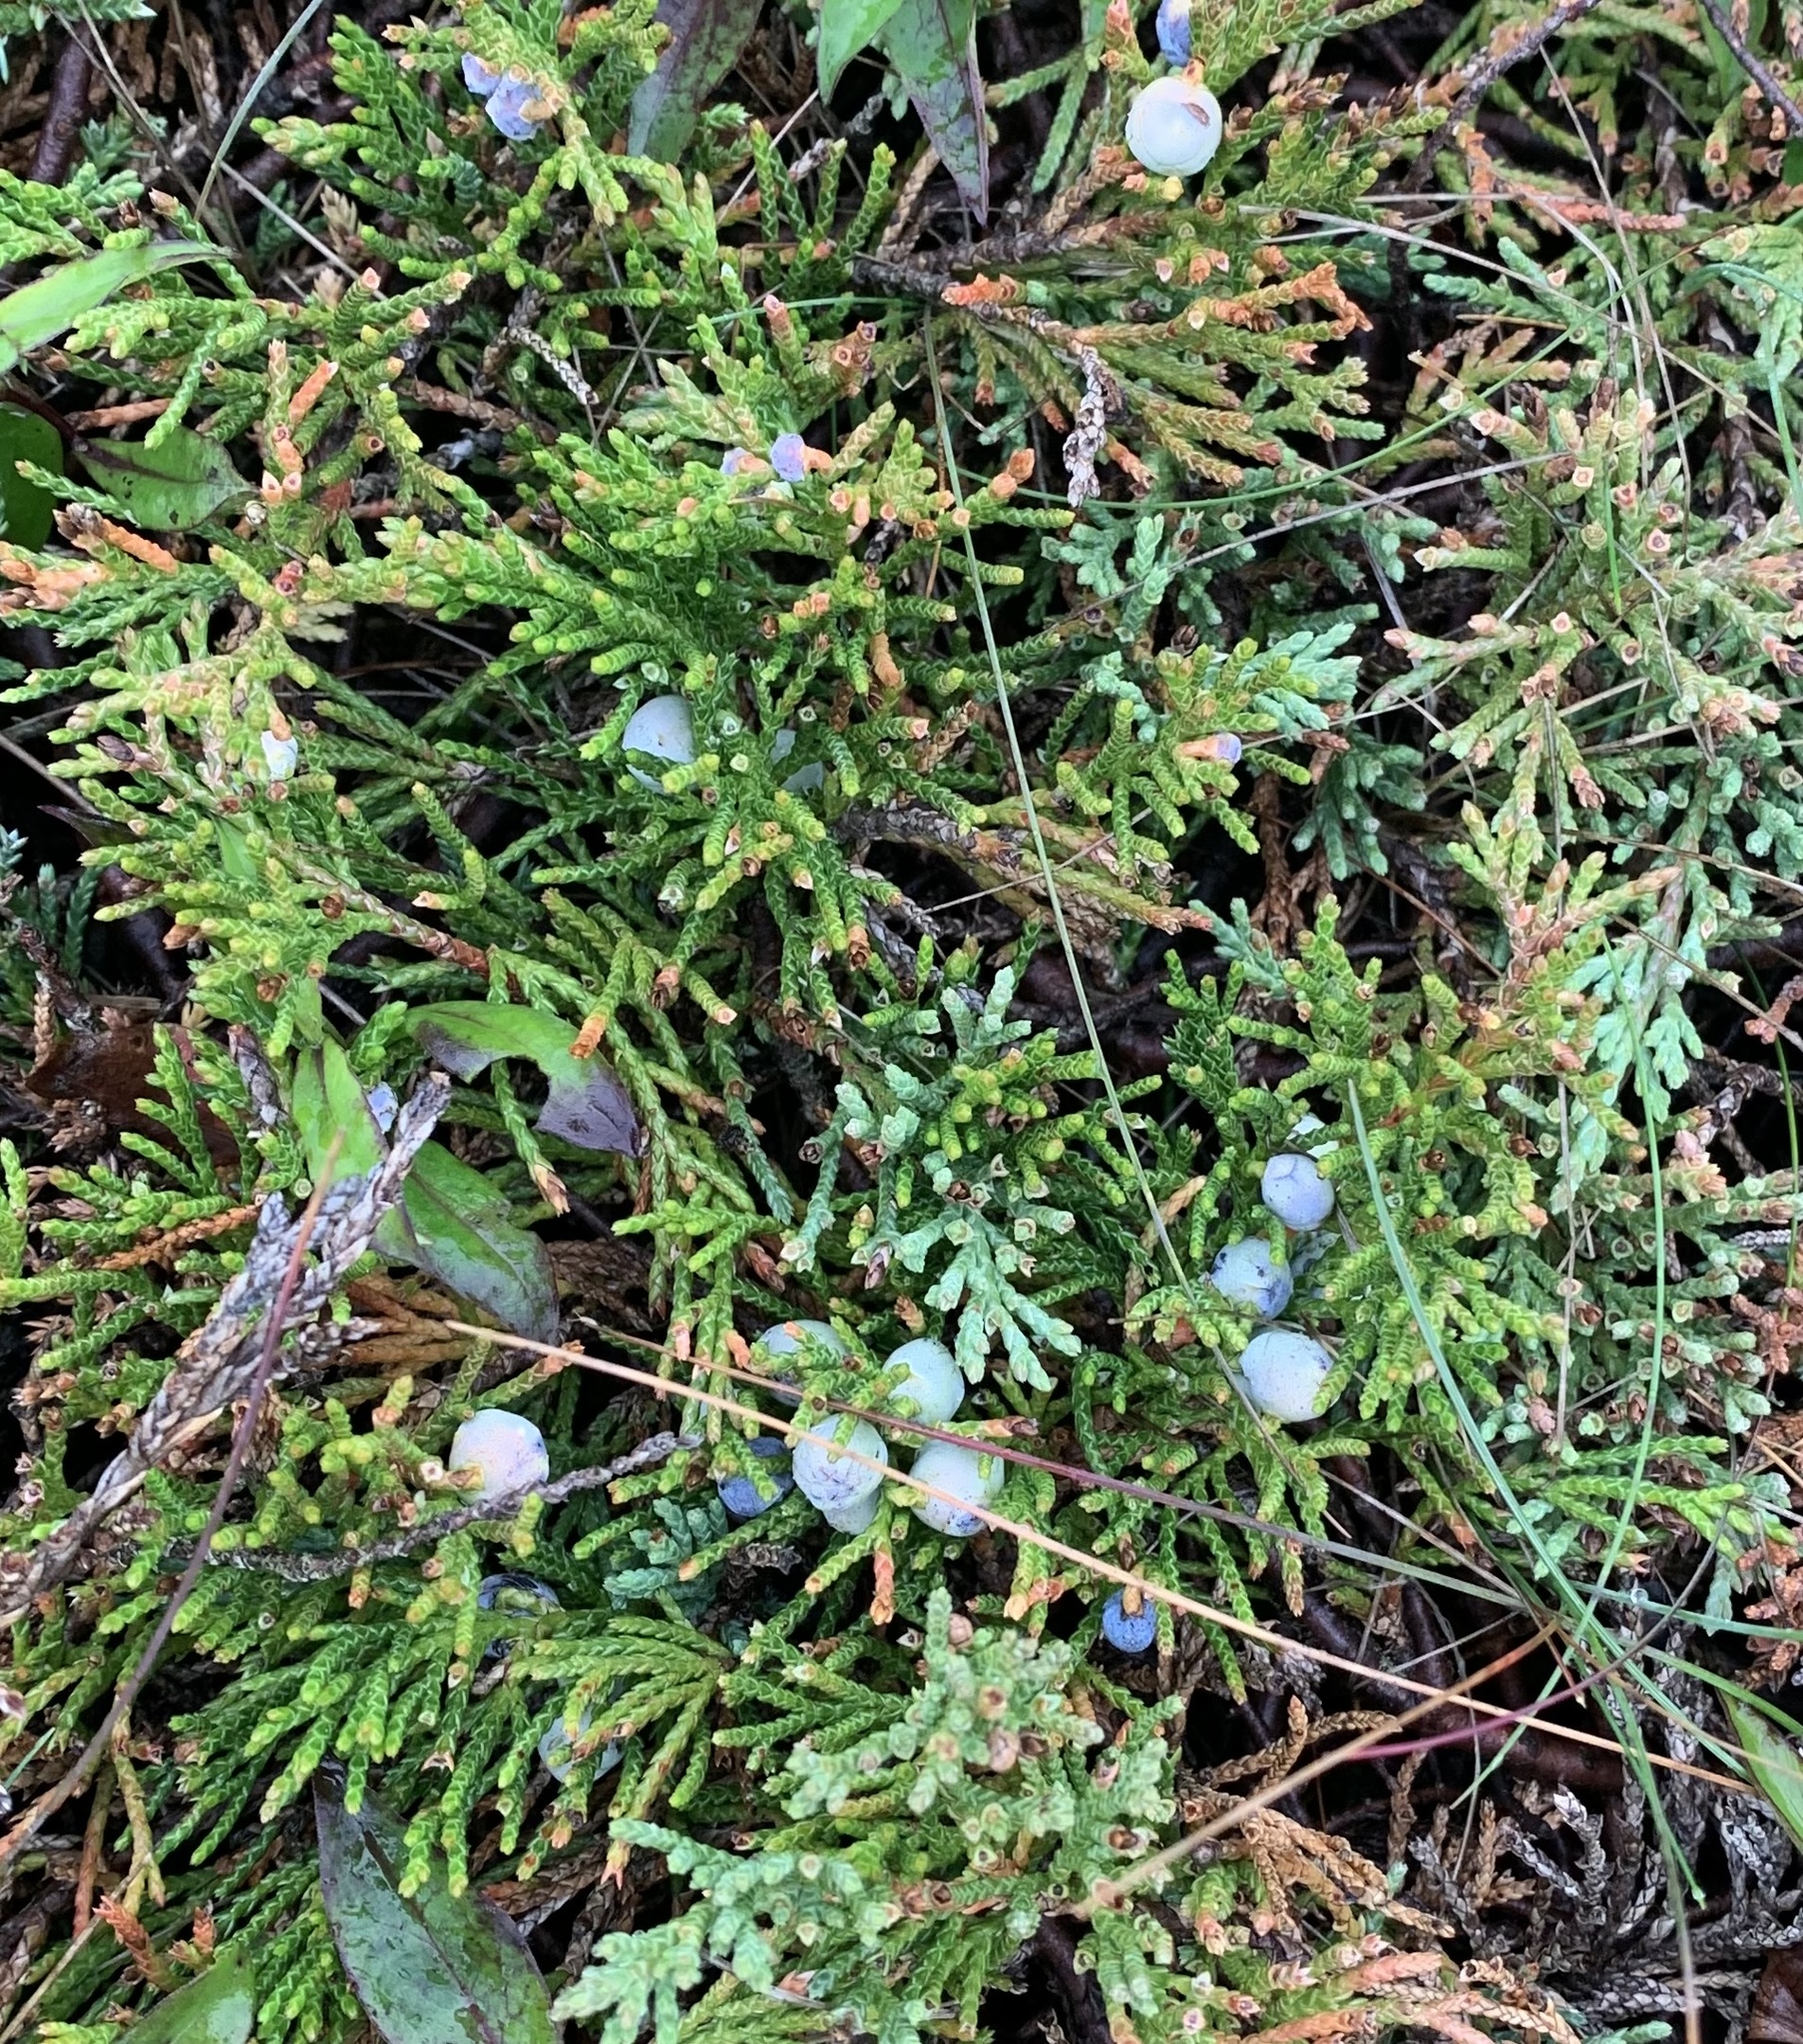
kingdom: Plantae
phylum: Tracheophyta
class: Pinopsida
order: Pinales
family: Cupressaceae
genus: Juniperus
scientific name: Juniperus horizontalis
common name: Creeping juniper
